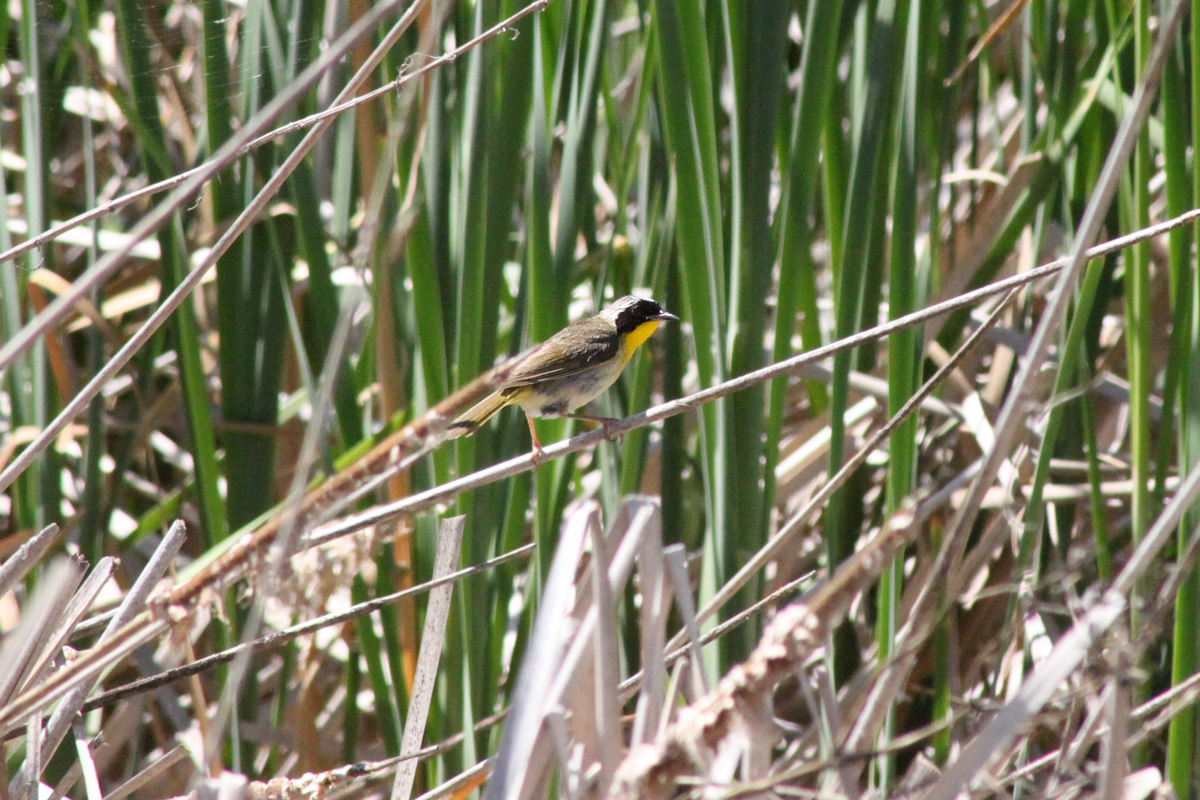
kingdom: Animalia
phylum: Chordata
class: Aves
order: Passeriformes
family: Parulidae
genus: Geothlypis
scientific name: Geothlypis trichas
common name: Common yellowthroat
